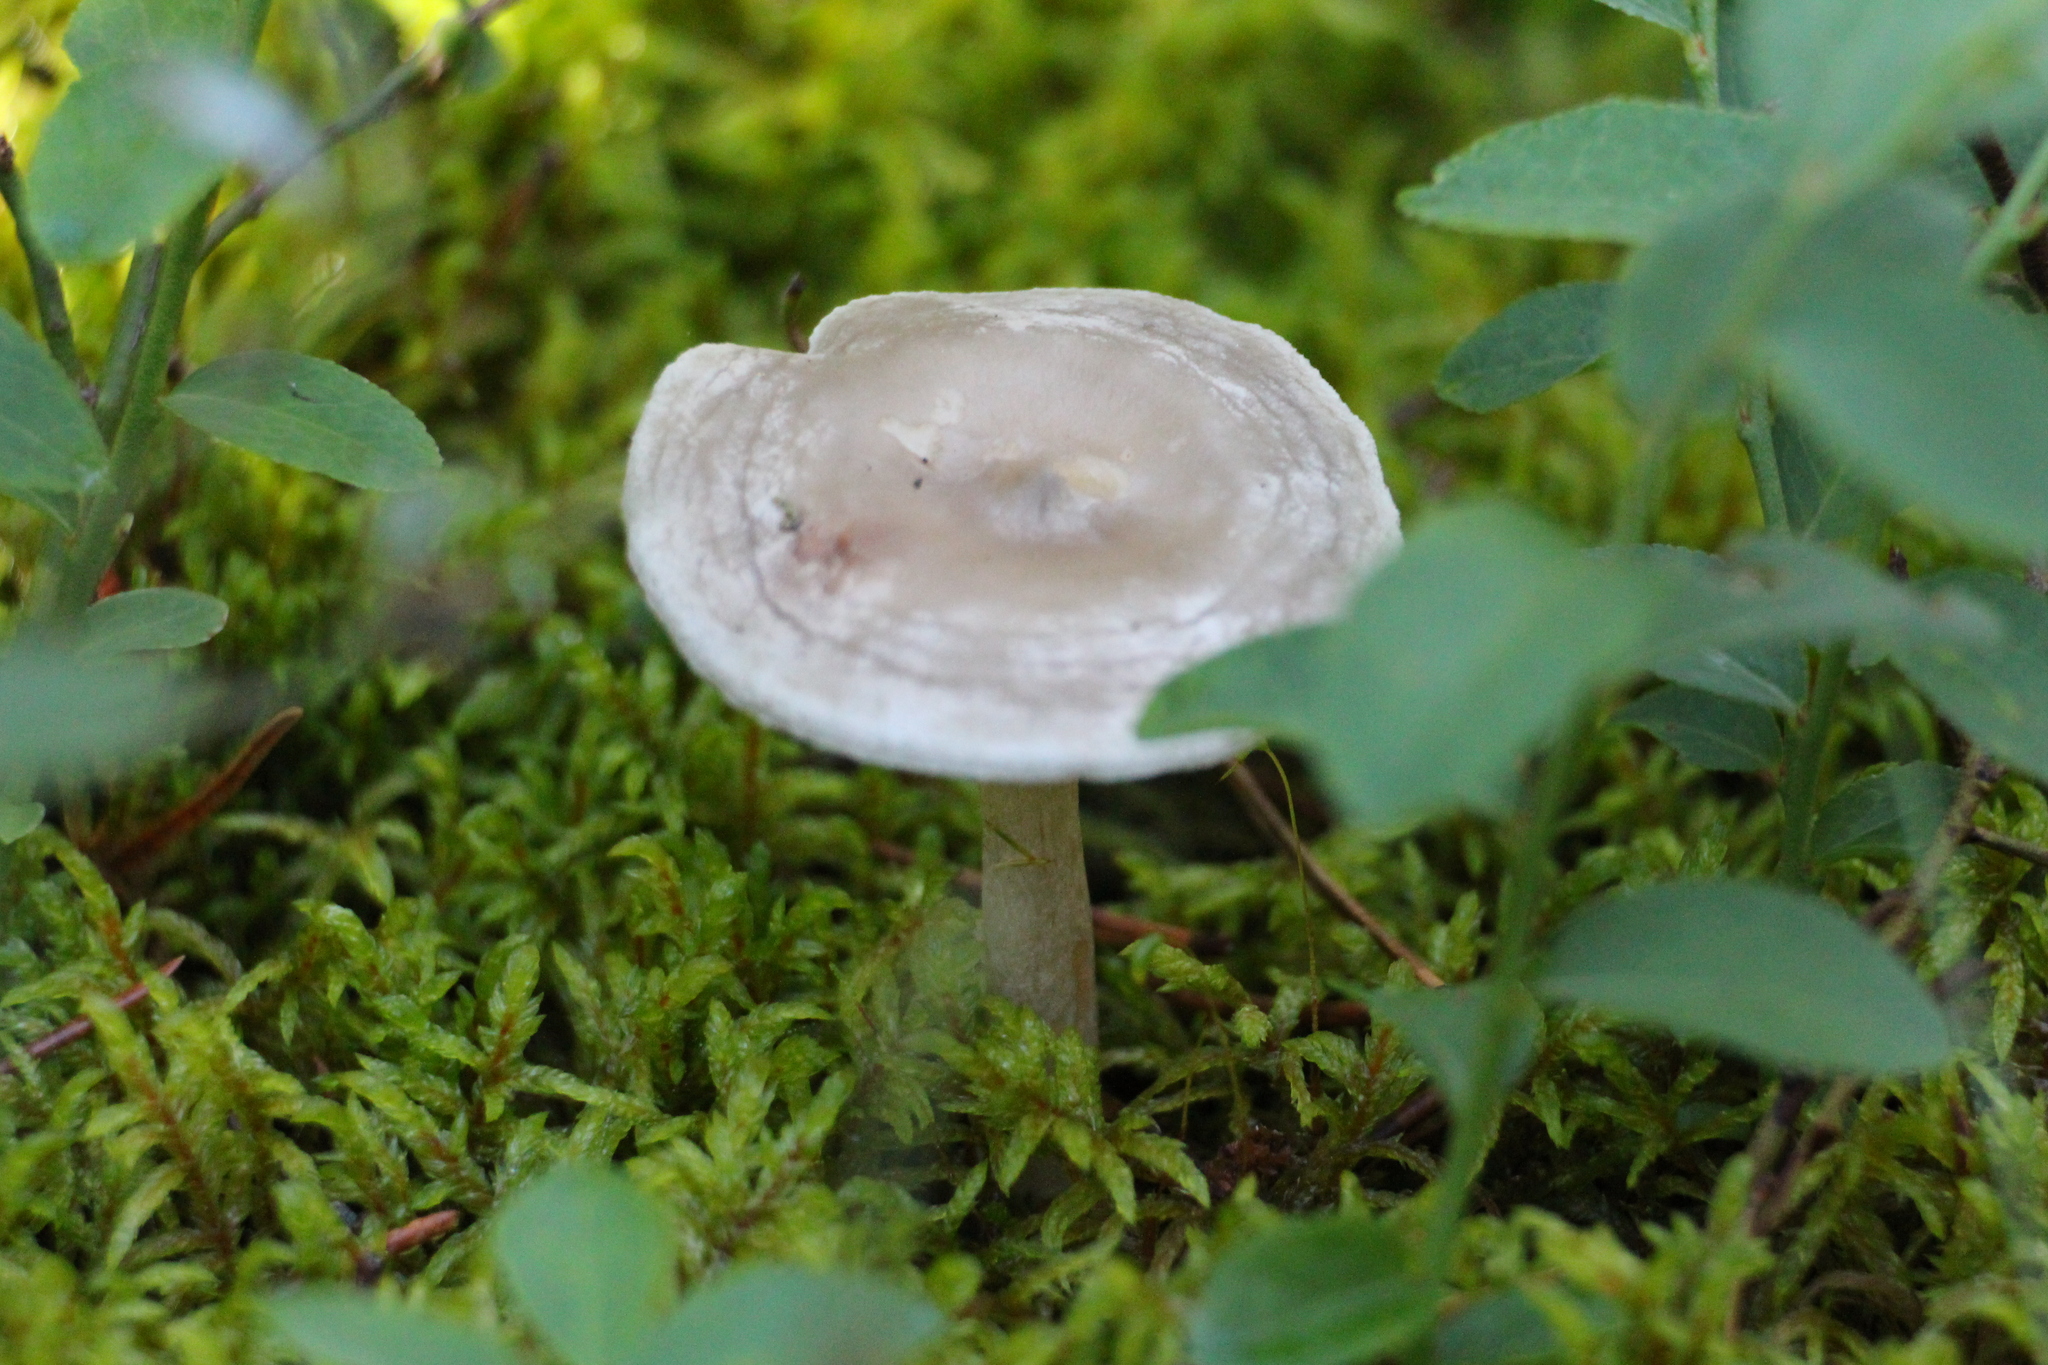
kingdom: Fungi
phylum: Basidiomycota
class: Agaricomycetes
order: Agaricales
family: Hygrophoraceae
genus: Cantharellula
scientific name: Cantharellula umbonata
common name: The humpback
